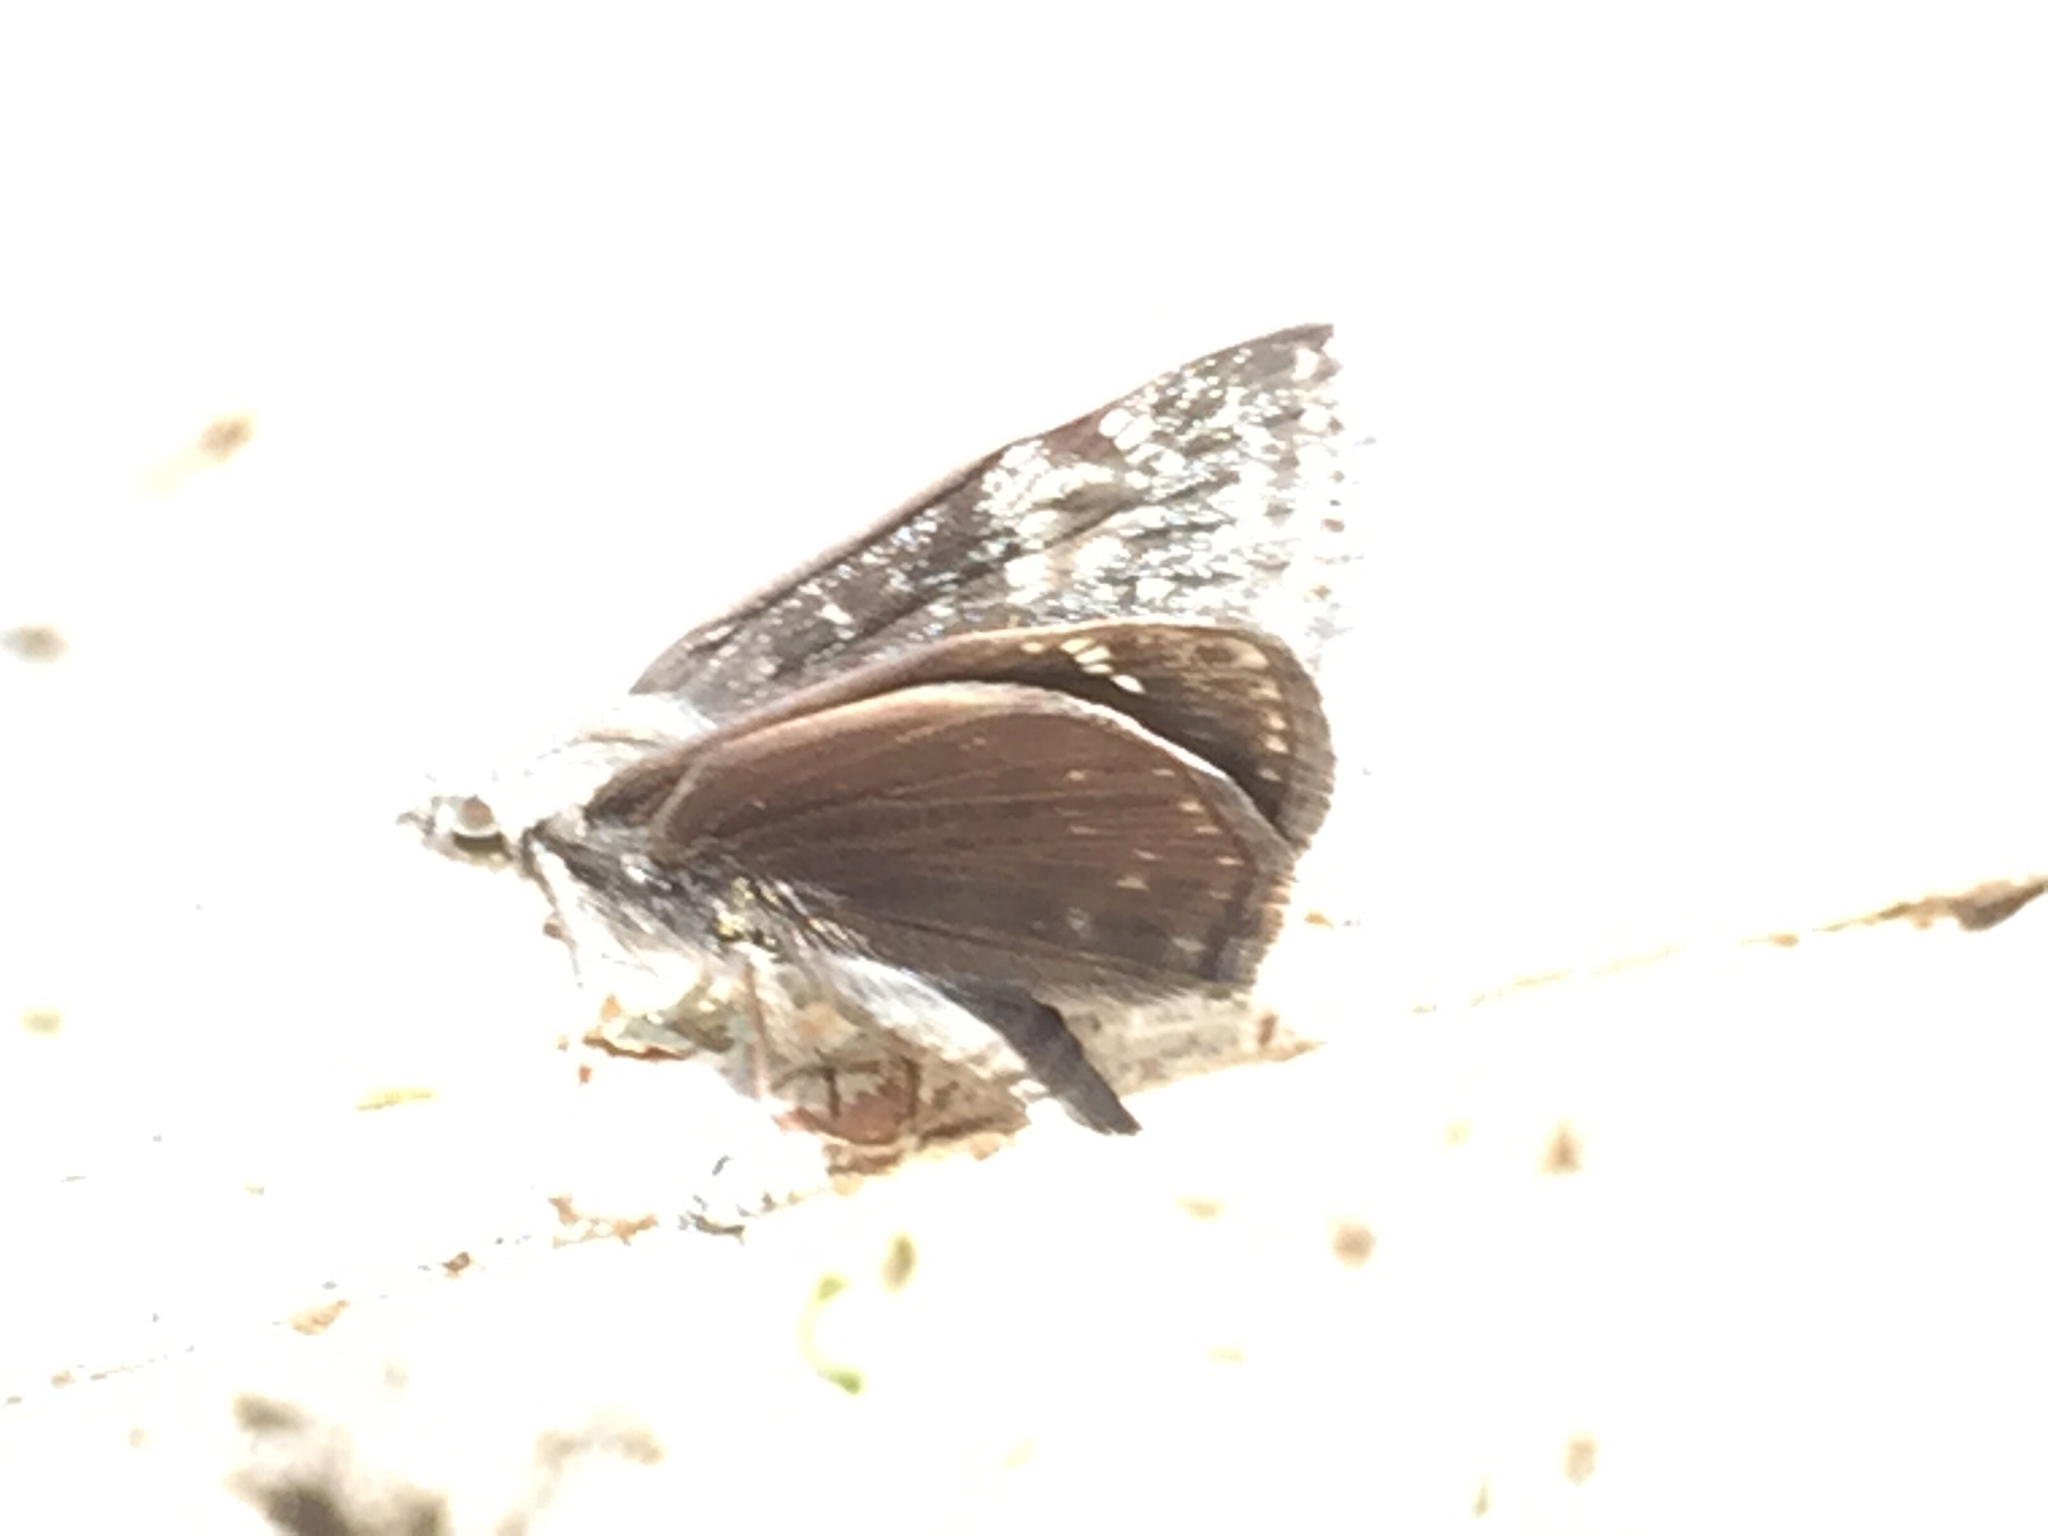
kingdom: Animalia
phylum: Arthropoda
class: Insecta
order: Lepidoptera
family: Hesperiidae
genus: Erynnis
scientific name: Erynnis afranius
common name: Afranius duskywing
